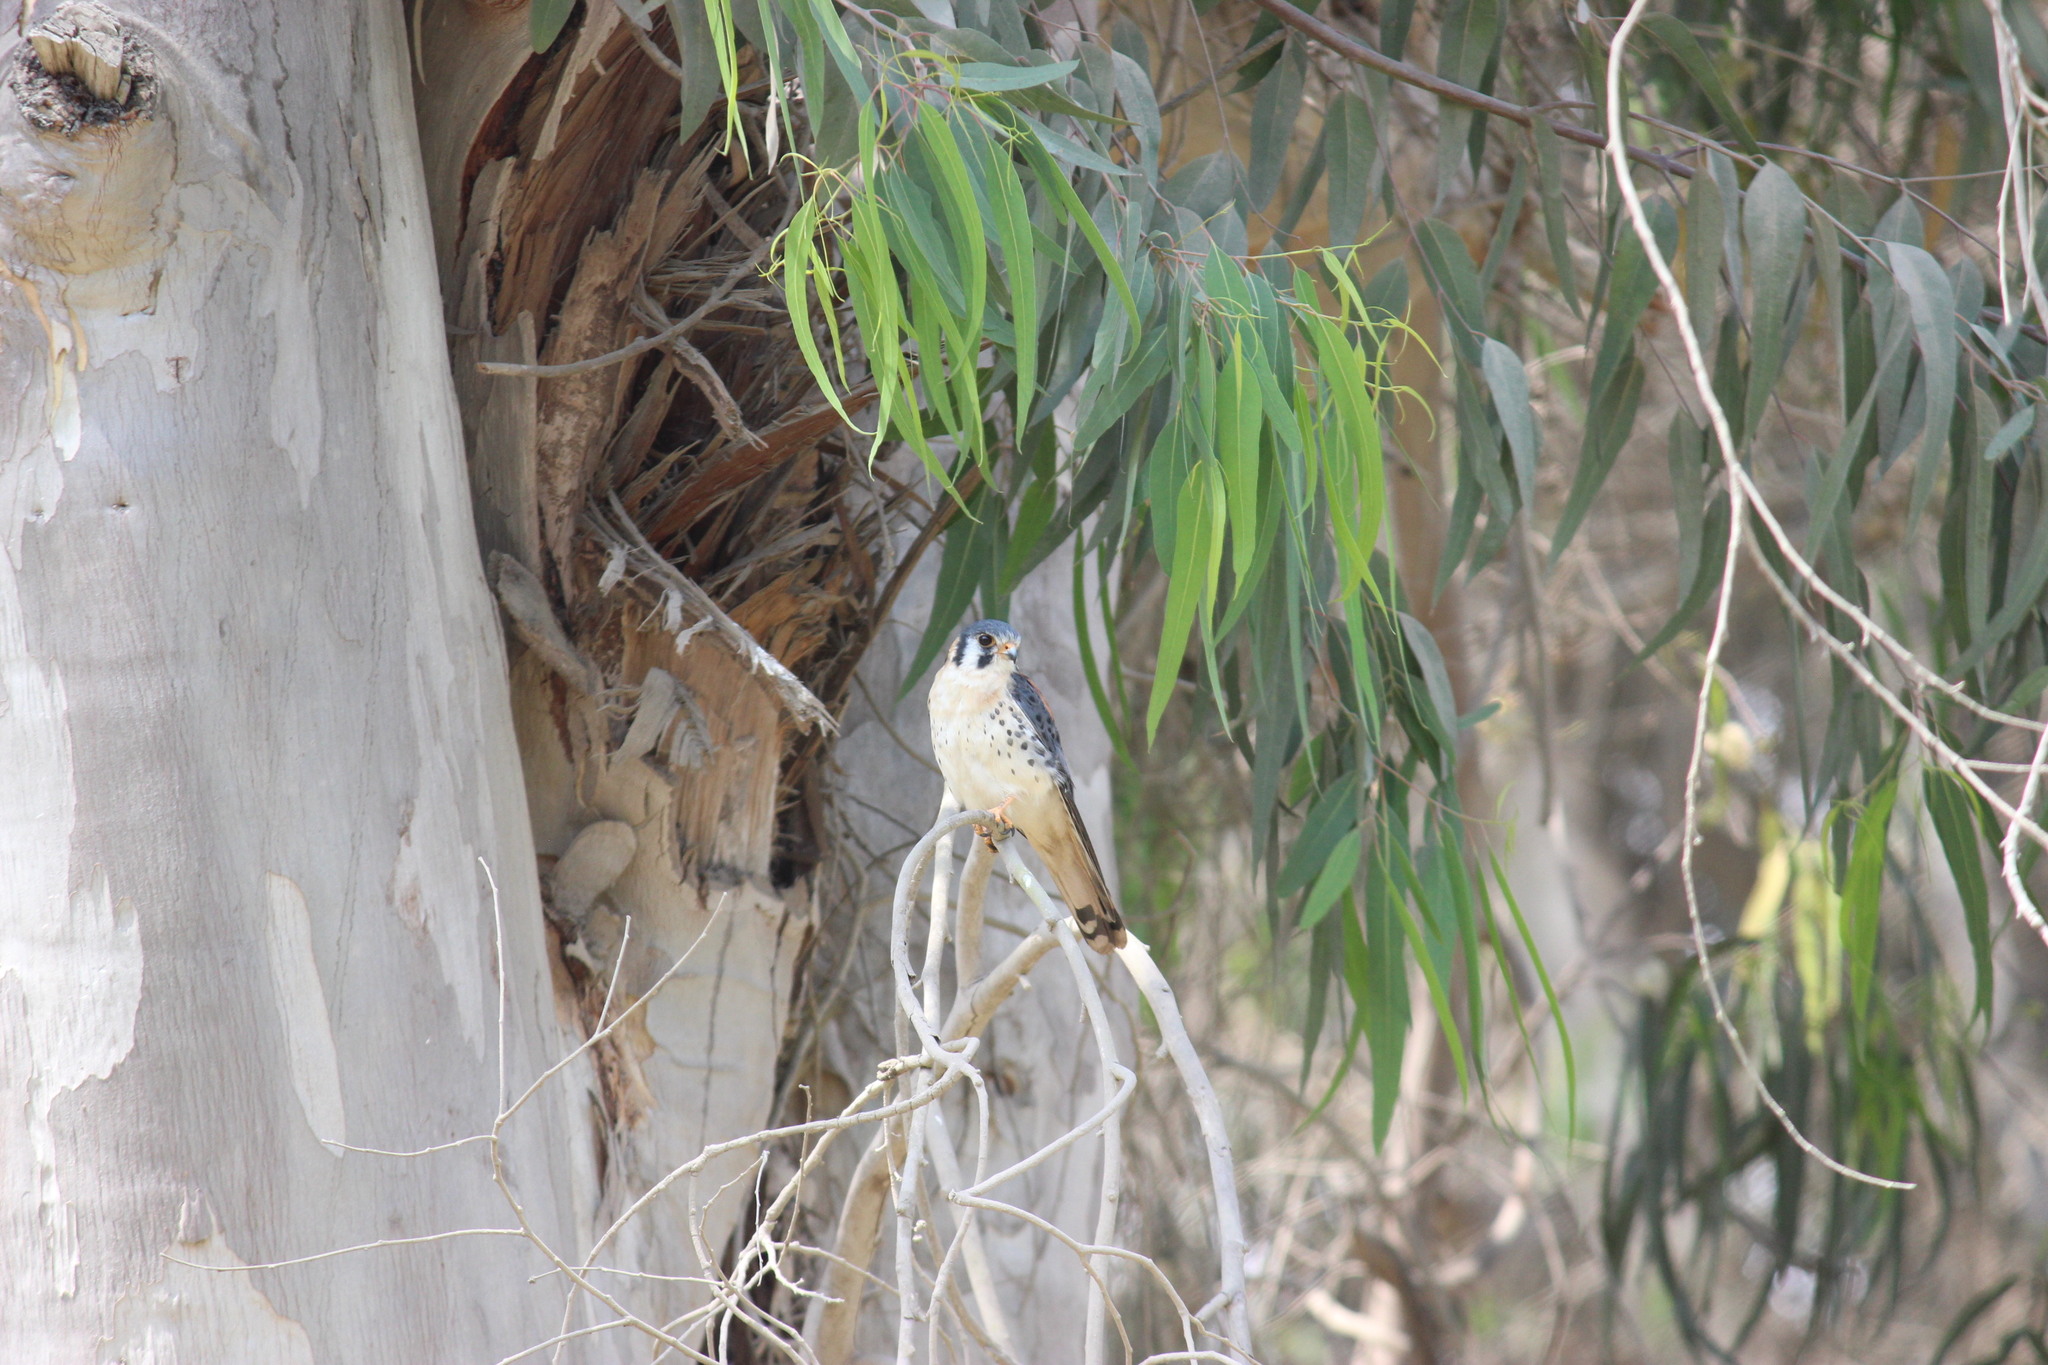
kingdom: Animalia
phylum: Chordata
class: Aves
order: Falconiformes
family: Falconidae
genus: Falco
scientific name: Falco sparverius
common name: American kestrel
